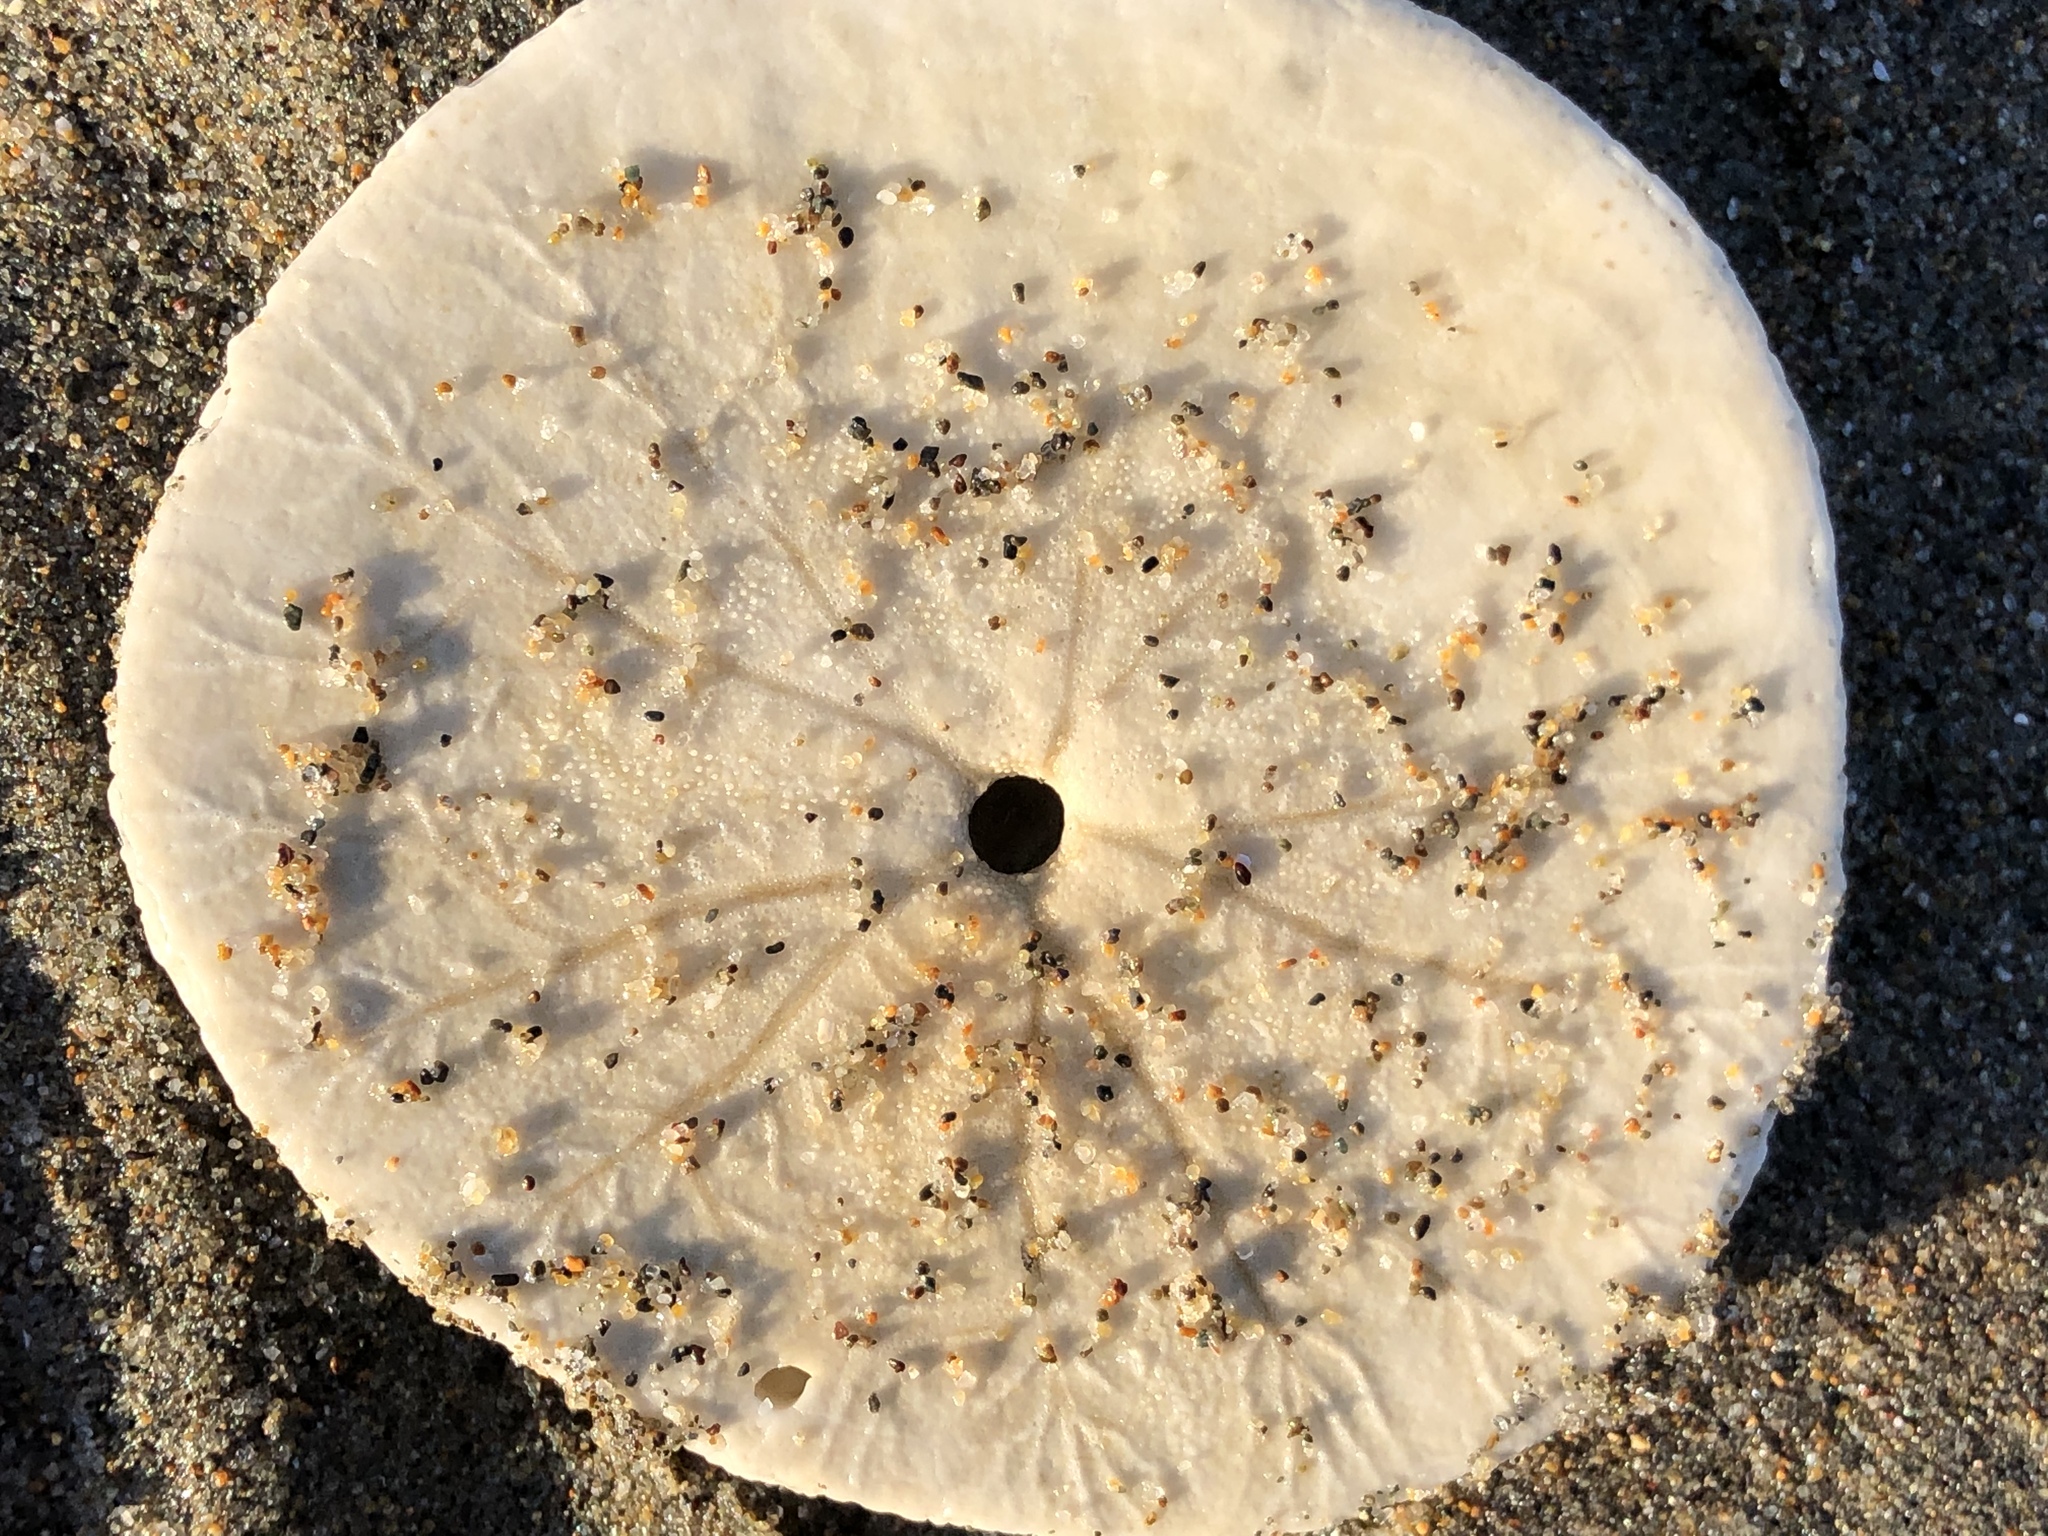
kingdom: Animalia
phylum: Echinodermata
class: Echinoidea
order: Echinolampadacea
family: Dendrasteridae
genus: Dendraster
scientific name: Dendraster excentricus
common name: Eccentric sand dollar sea urchin
